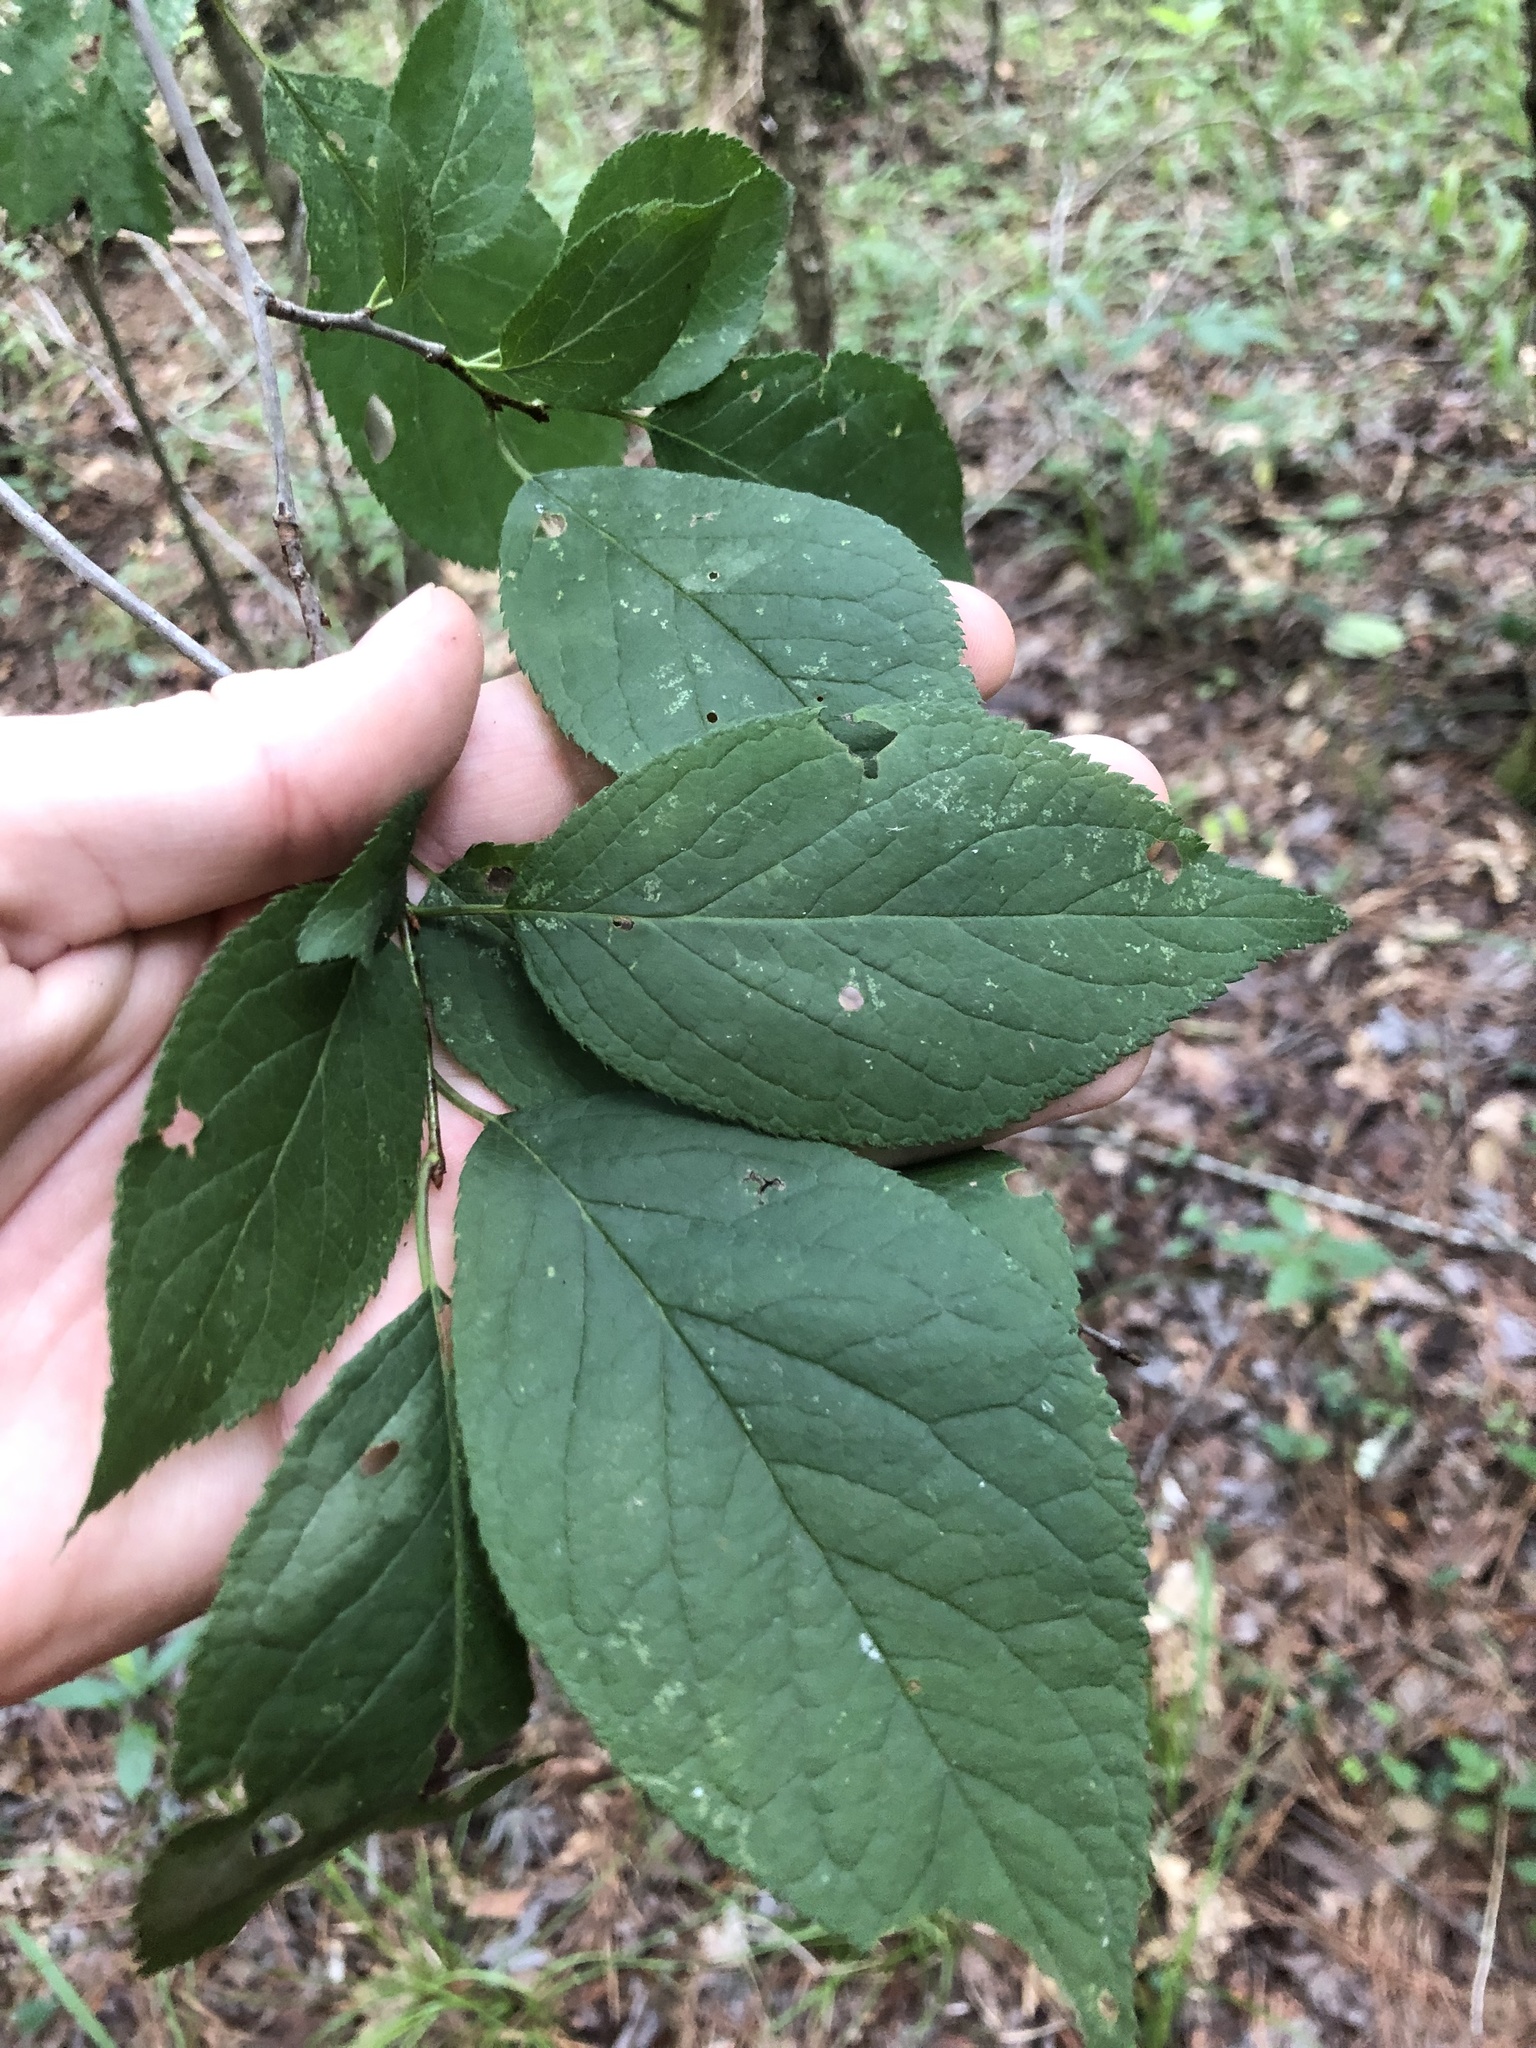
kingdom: Plantae
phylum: Tracheophyta
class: Magnoliopsida
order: Rosales
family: Rosaceae
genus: Prunus
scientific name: Prunus mexicana
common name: Mexican plum
